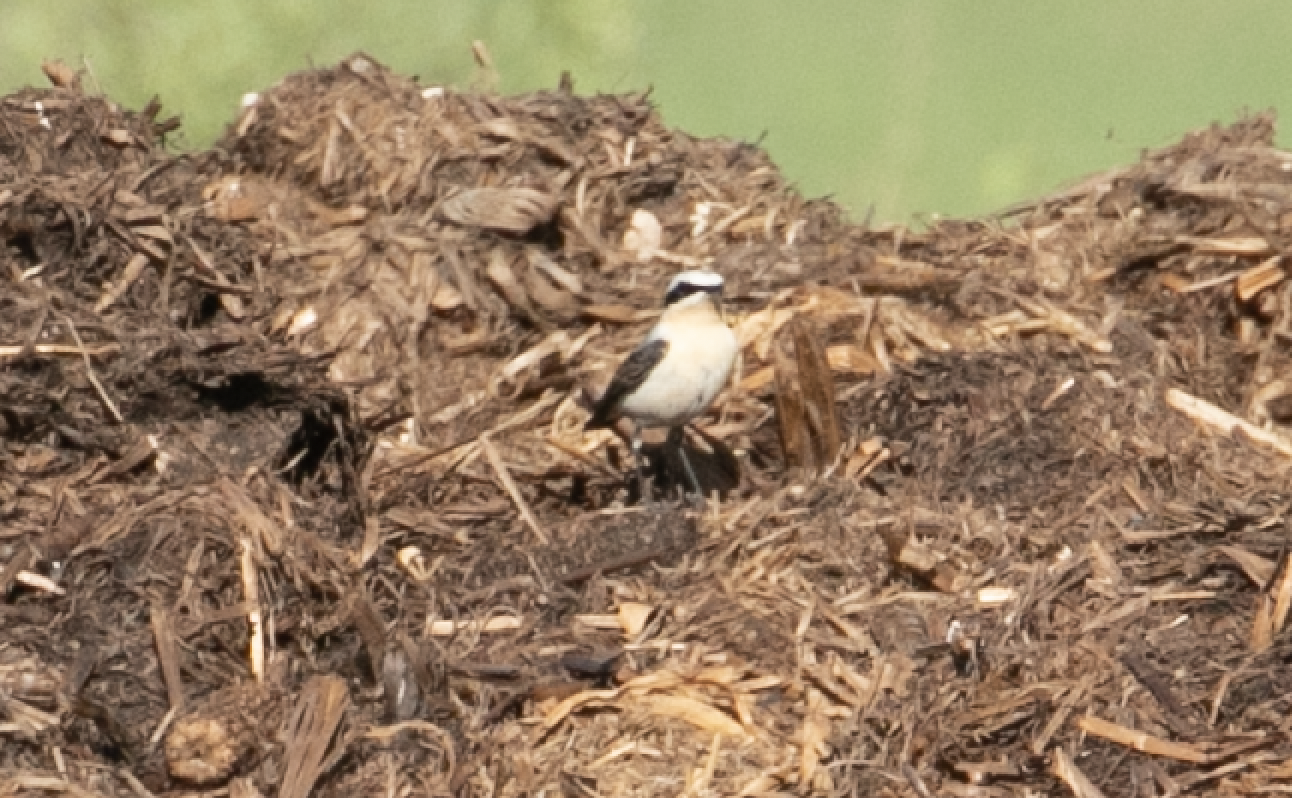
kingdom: Animalia
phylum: Chordata
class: Aves
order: Passeriformes
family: Muscicapidae
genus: Oenanthe
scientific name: Oenanthe oenanthe
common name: Northern wheatear
